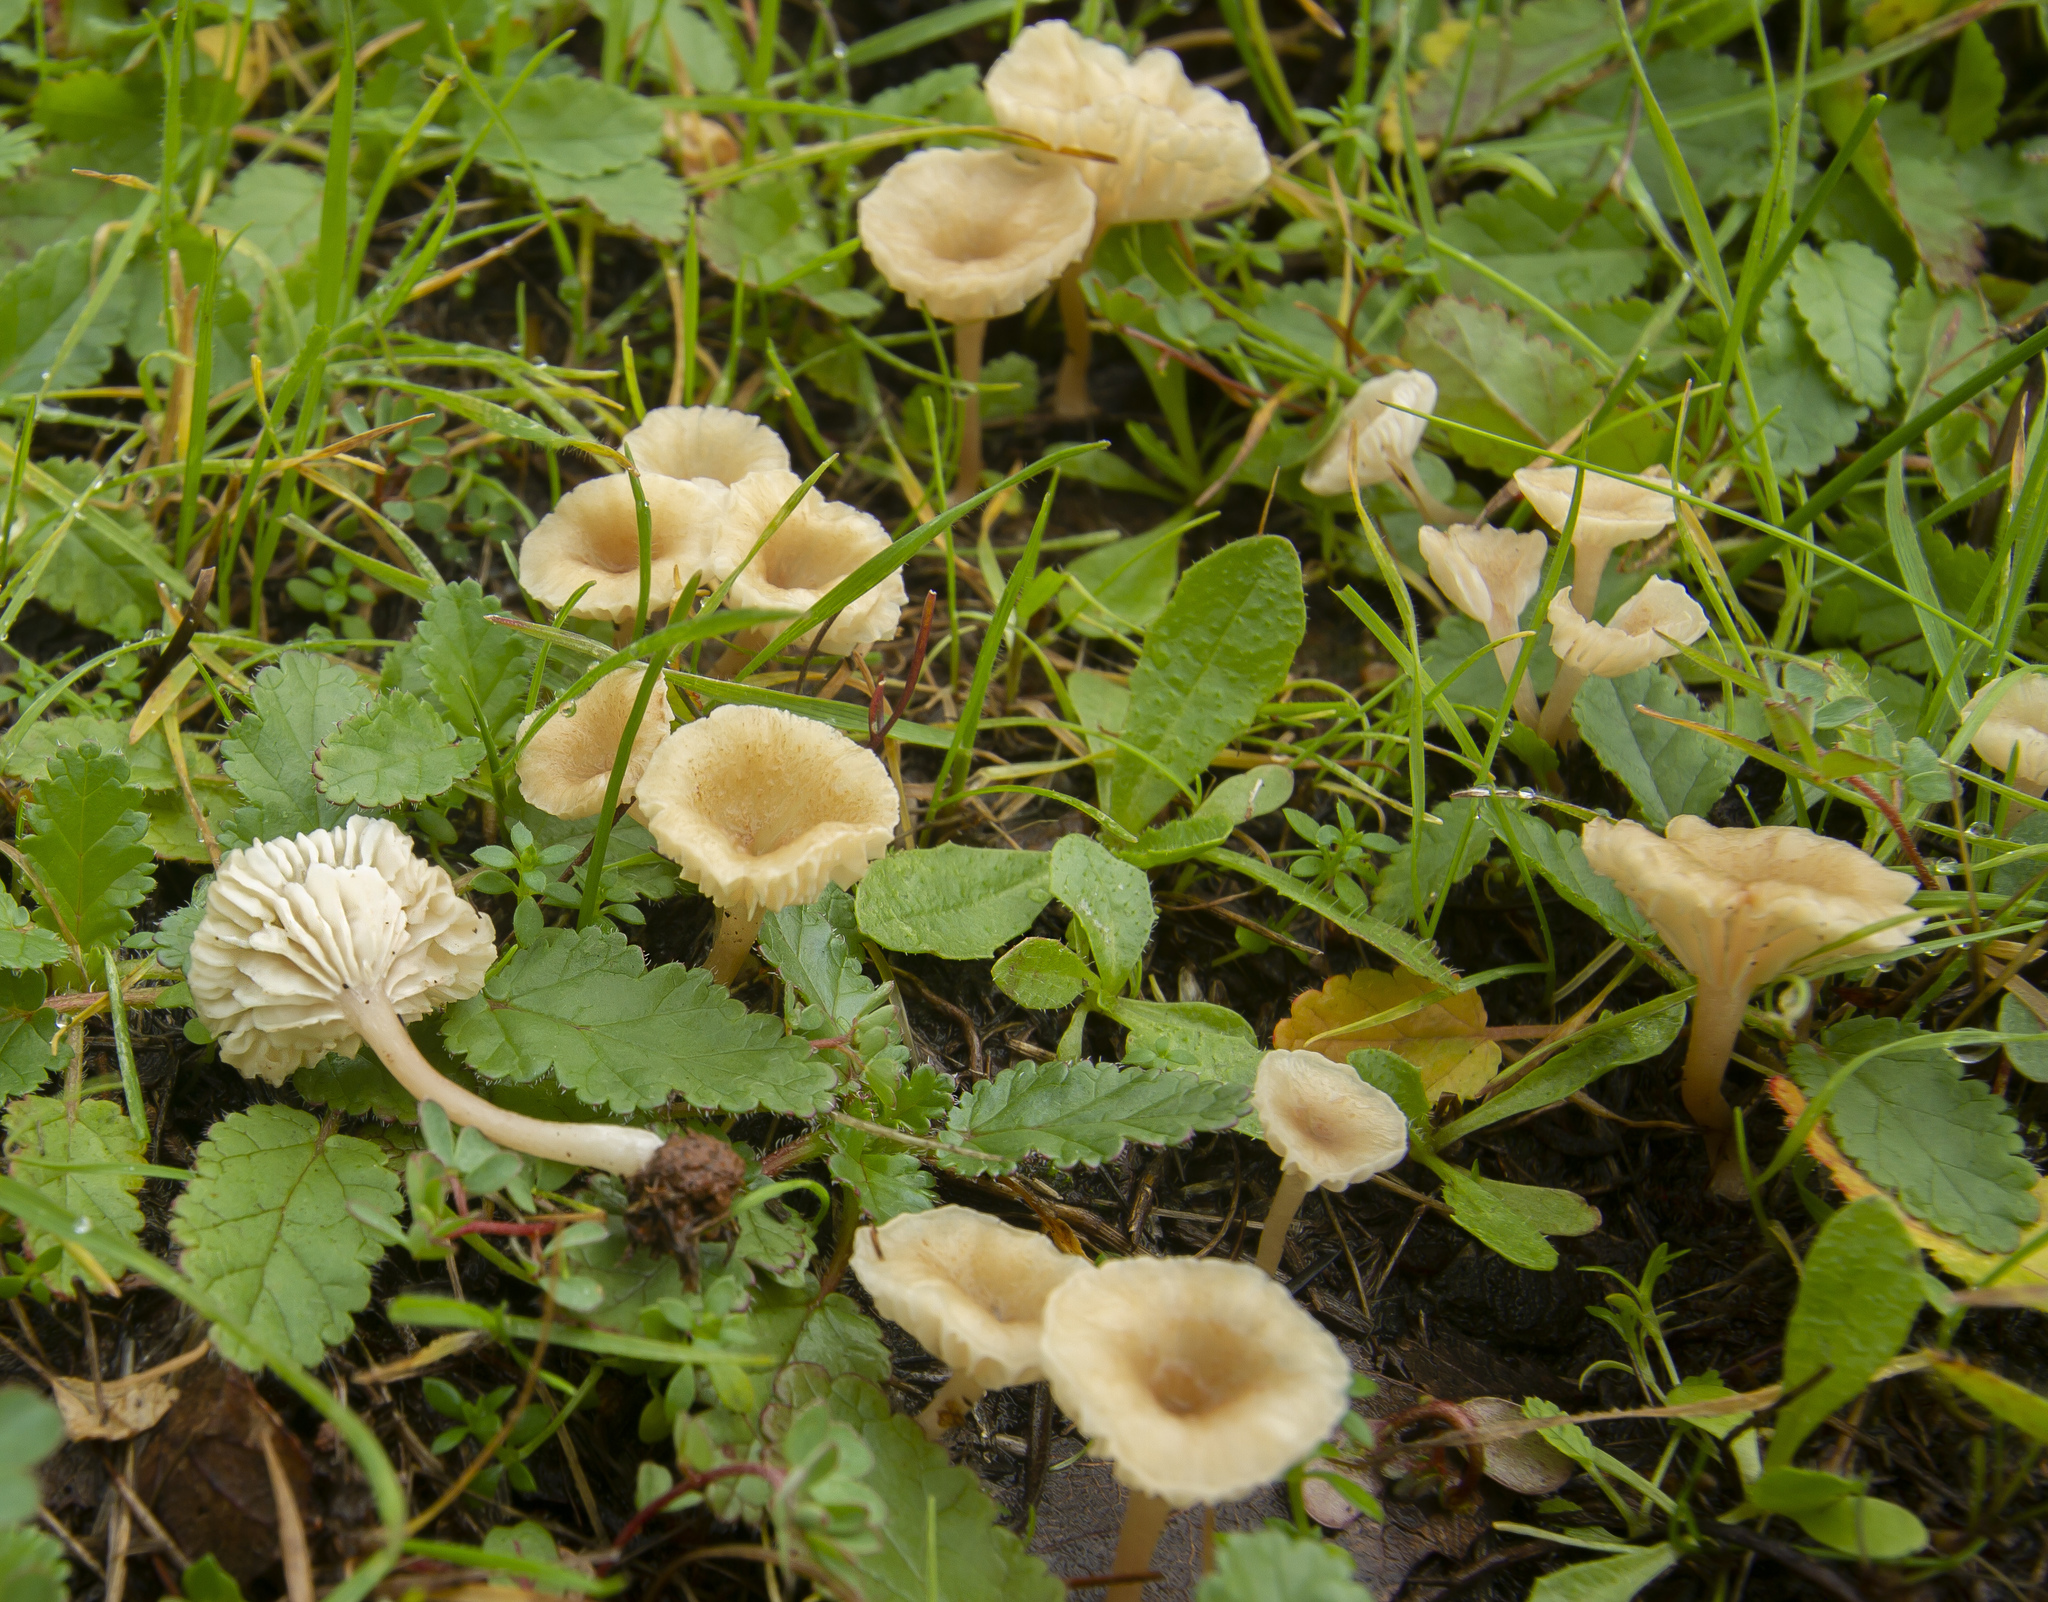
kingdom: Fungi
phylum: Basidiomycota
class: Agaricomycetes
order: Hymenochaetales
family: Rickenellaceae
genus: Contumyces
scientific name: Contumyces rosellus
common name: Rosy navel
